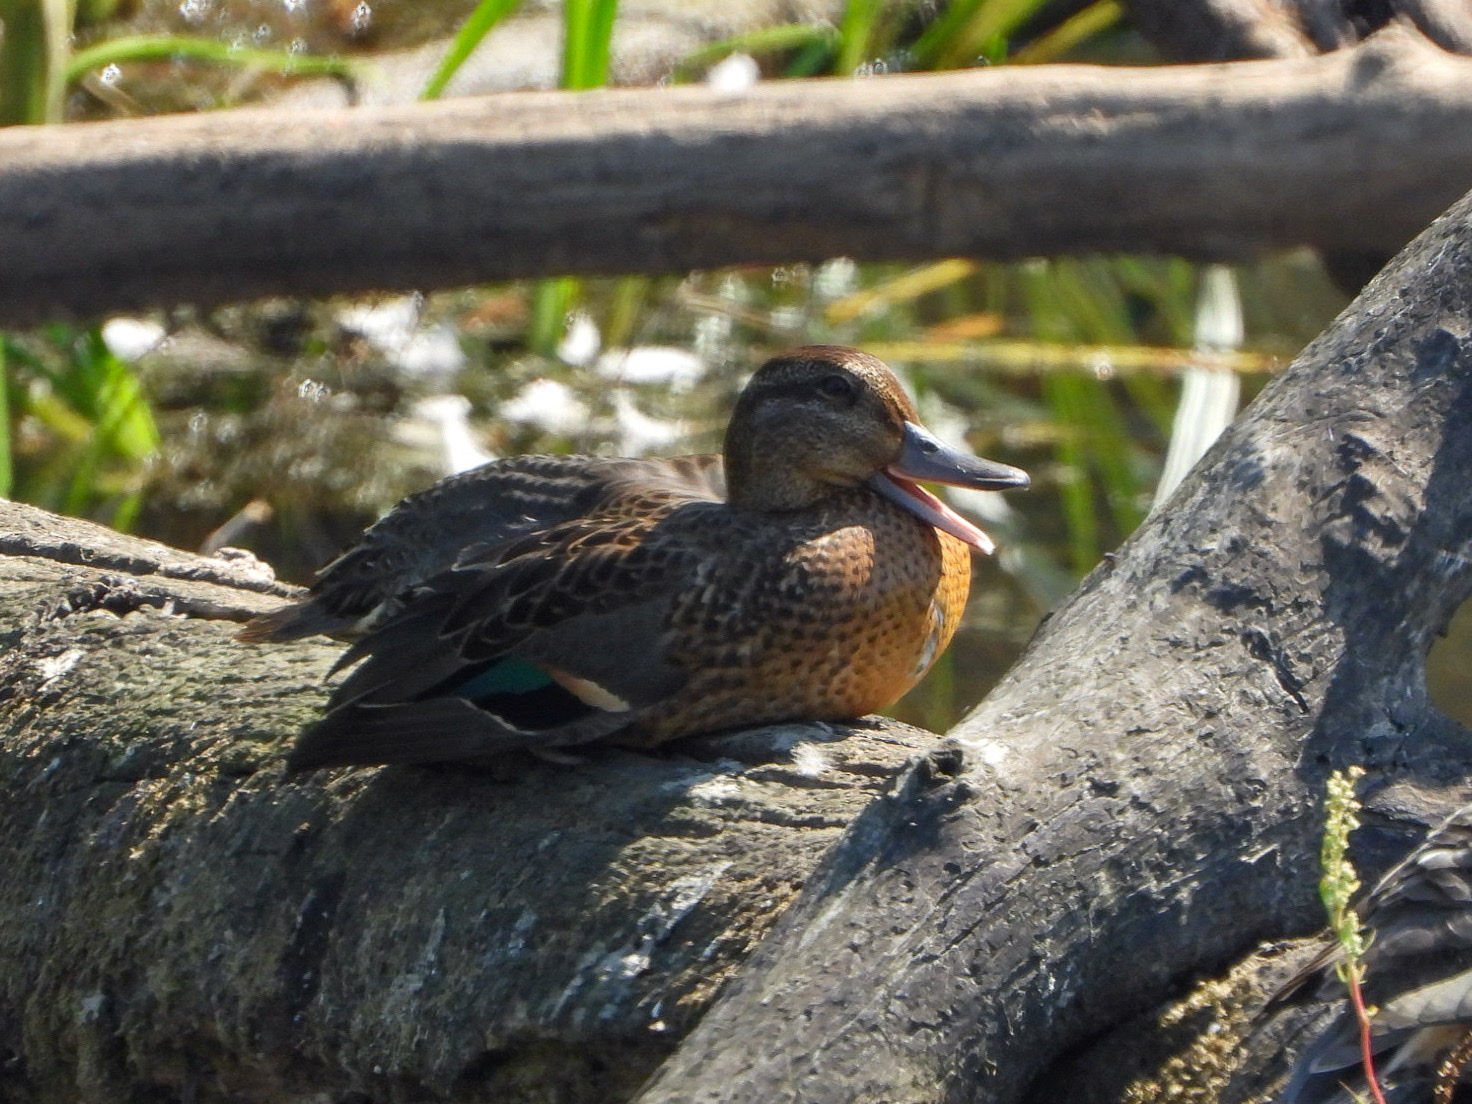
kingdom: Animalia
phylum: Chordata
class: Aves
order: Anseriformes
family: Anatidae
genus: Anas
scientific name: Anas crecca
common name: Eurasian teal
